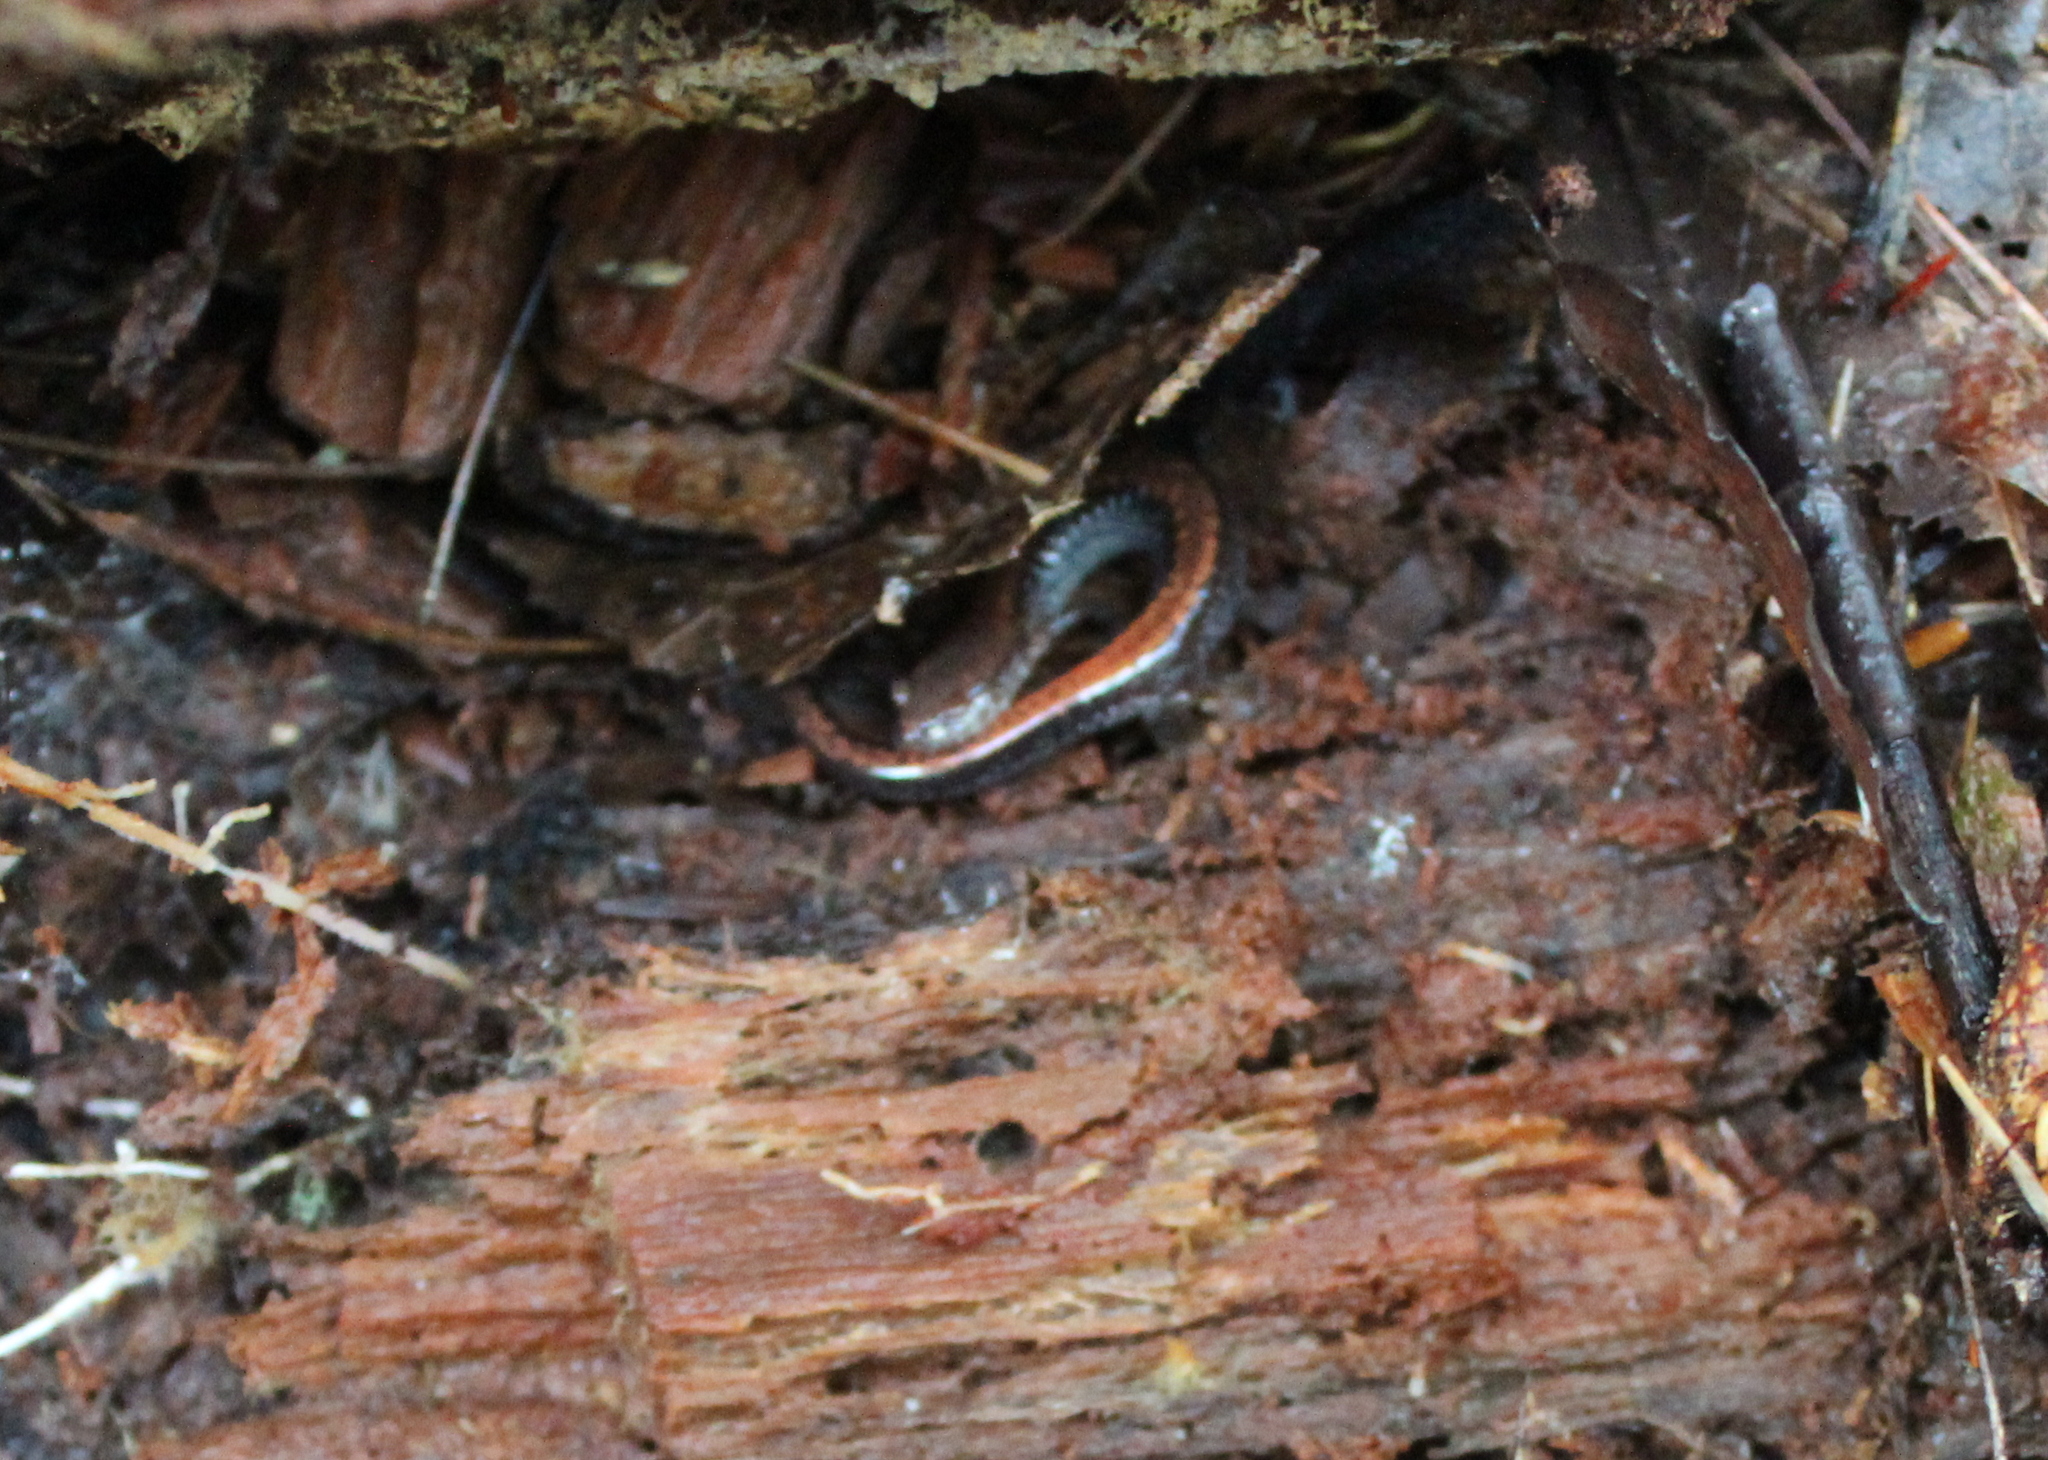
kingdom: Animalia
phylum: Chordata
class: Amphibia
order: Caudata
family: Plethodontidae
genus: Plethodon
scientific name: Plethodon cinereus
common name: Redback salamander
